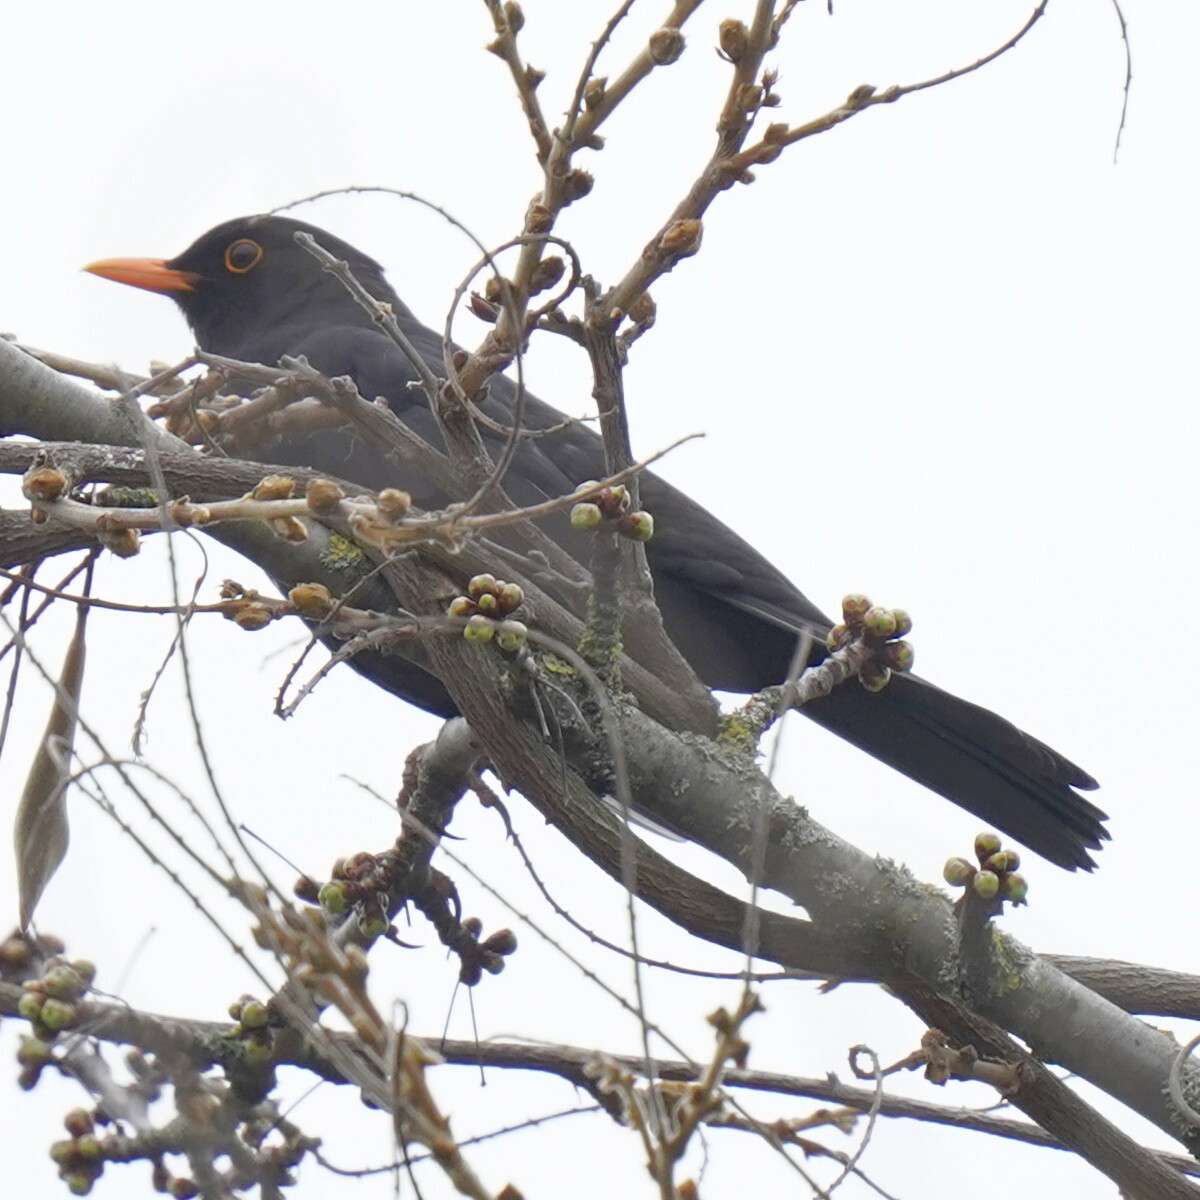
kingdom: Animalia
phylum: Chordata
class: Aves
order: Passeriformes
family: Turdidae
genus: Turdus
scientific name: Turdus merula
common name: Common blackbird
